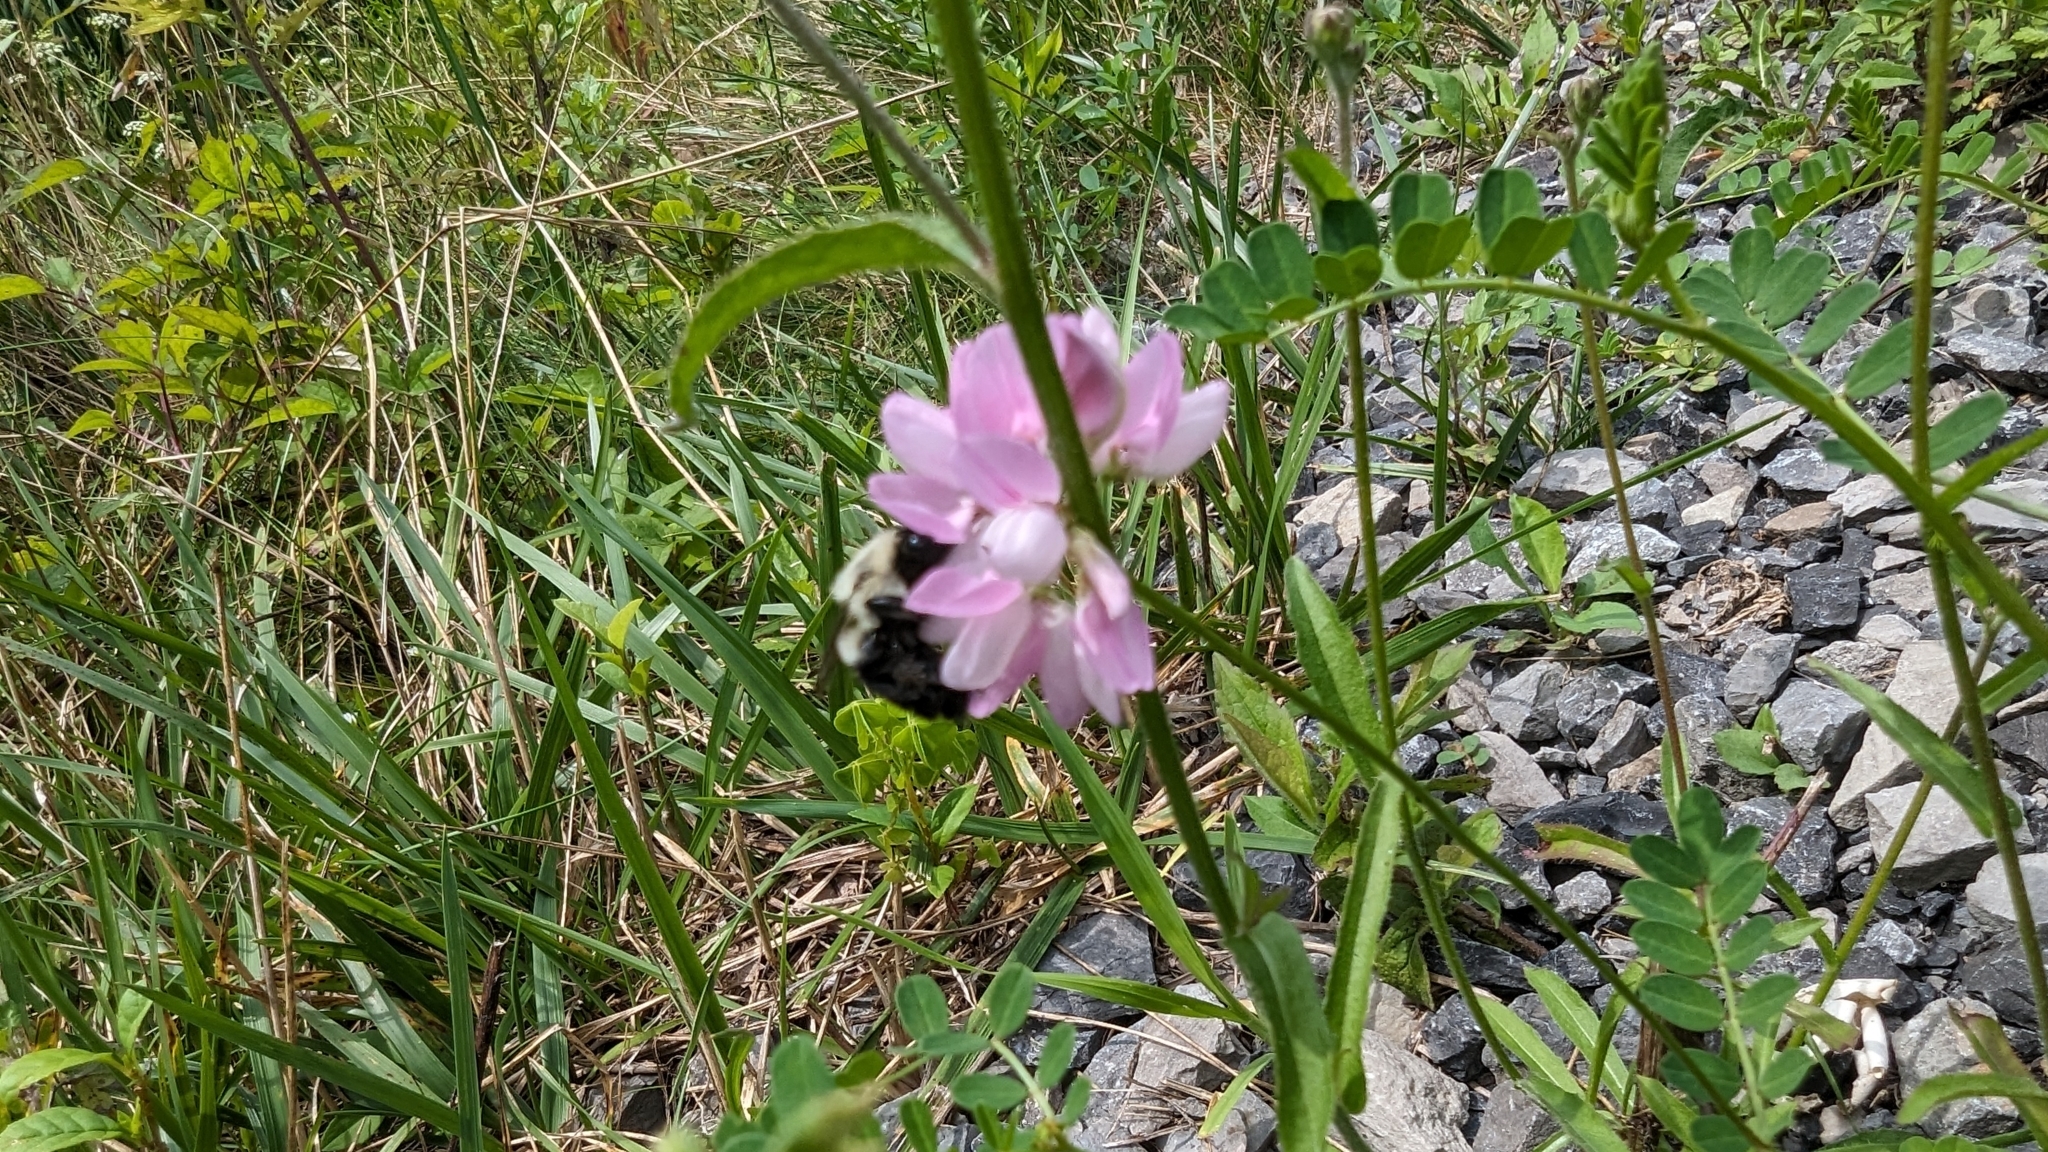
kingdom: Animalia
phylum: Arthropoda
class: Insecta
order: Hymenoptera
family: Apidae
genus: Bombus
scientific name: Bombus impatiens
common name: Common eastern bumble bee
